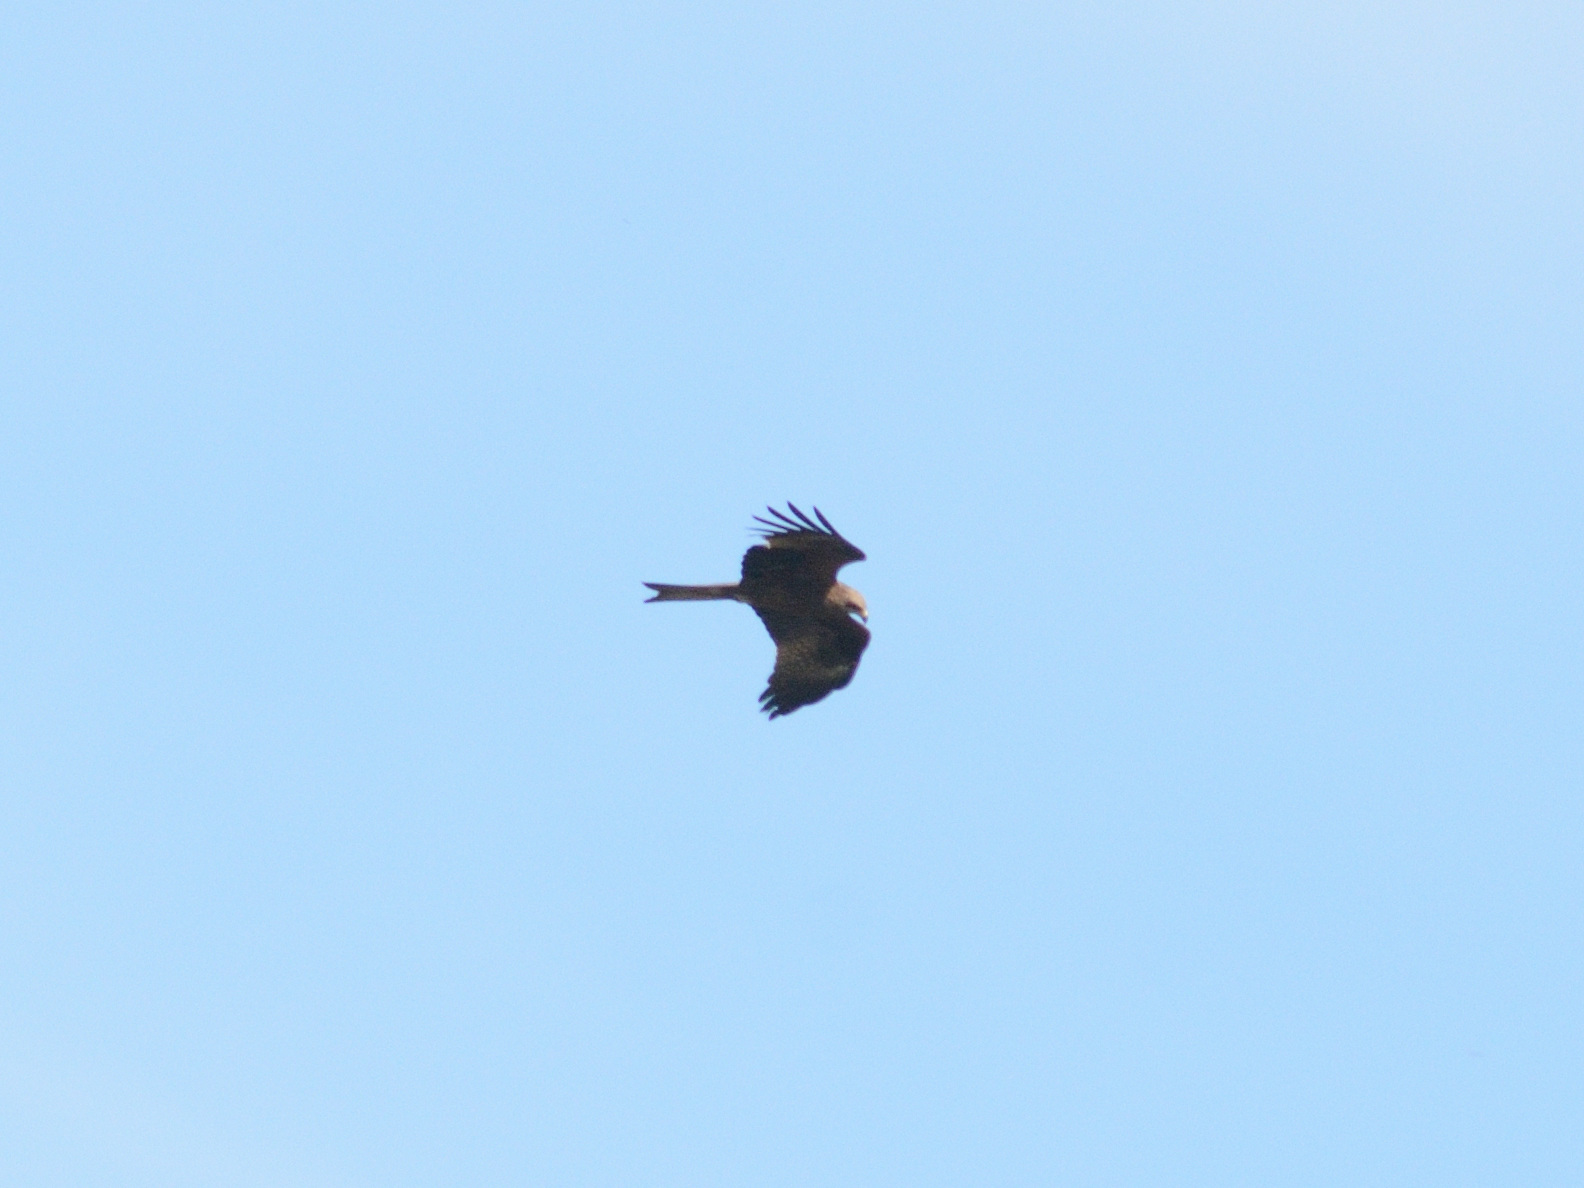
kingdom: Animalia
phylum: Chordata
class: Aves
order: Accipitriformes
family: Accipitridae
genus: Milvus
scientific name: Milvus migrans
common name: Black kite
